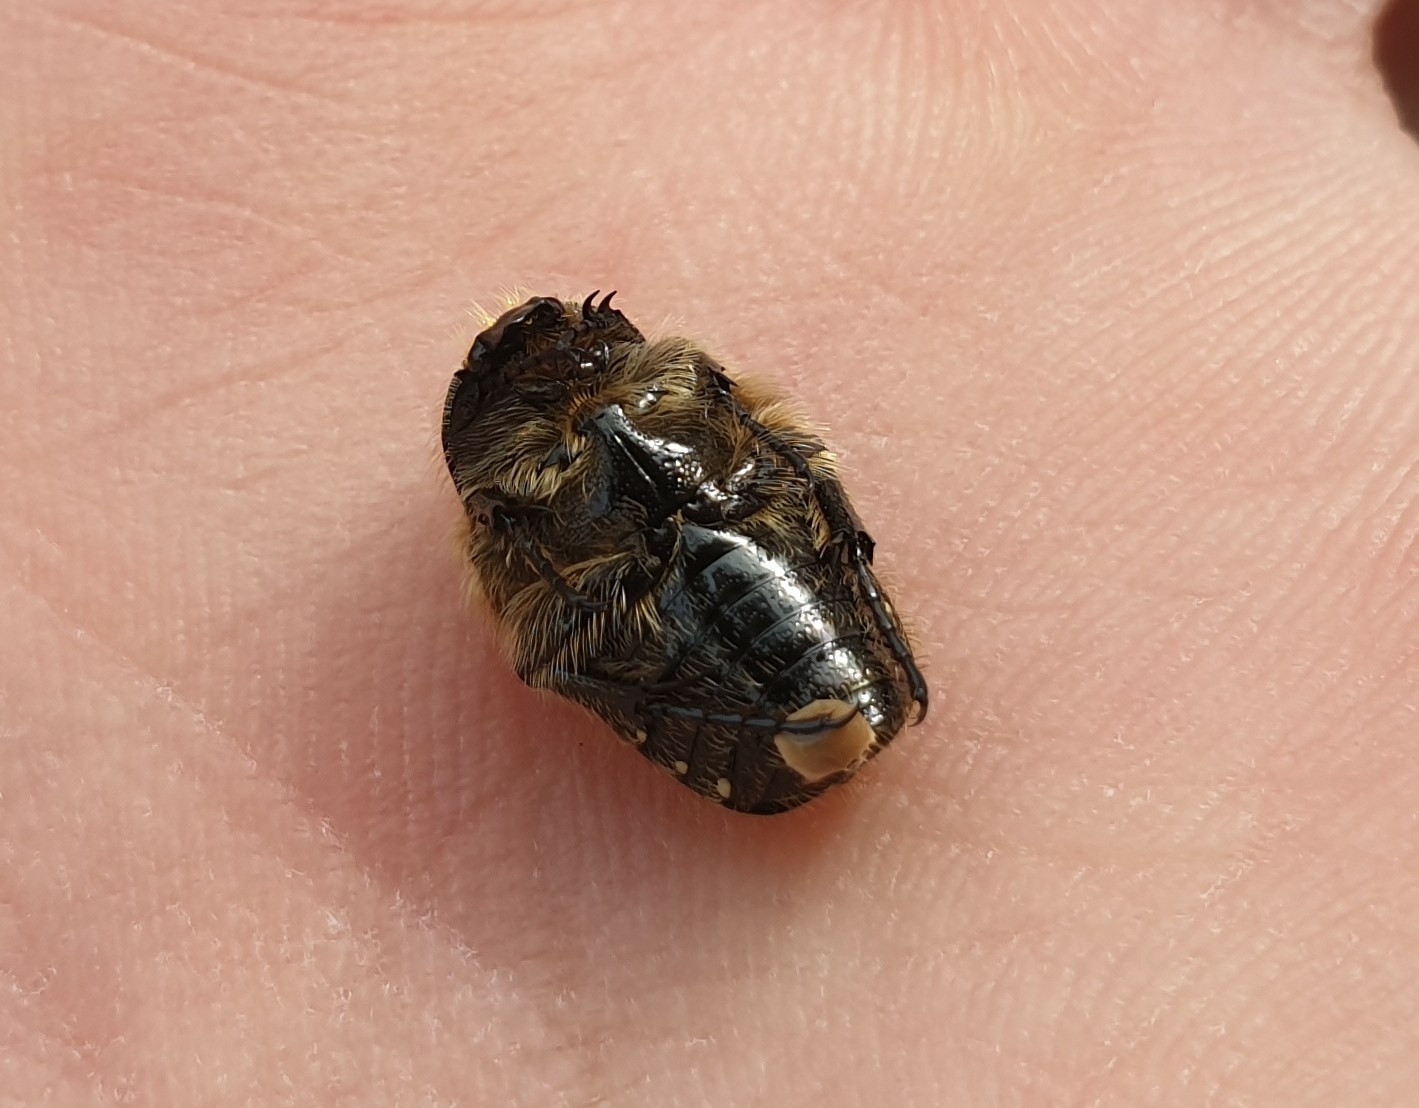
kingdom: Animalia
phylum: Arthropoda
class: Insecta
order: Coleoptera
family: Scarabaeidae
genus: Oxythyrea
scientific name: Oxythyrea funesta
